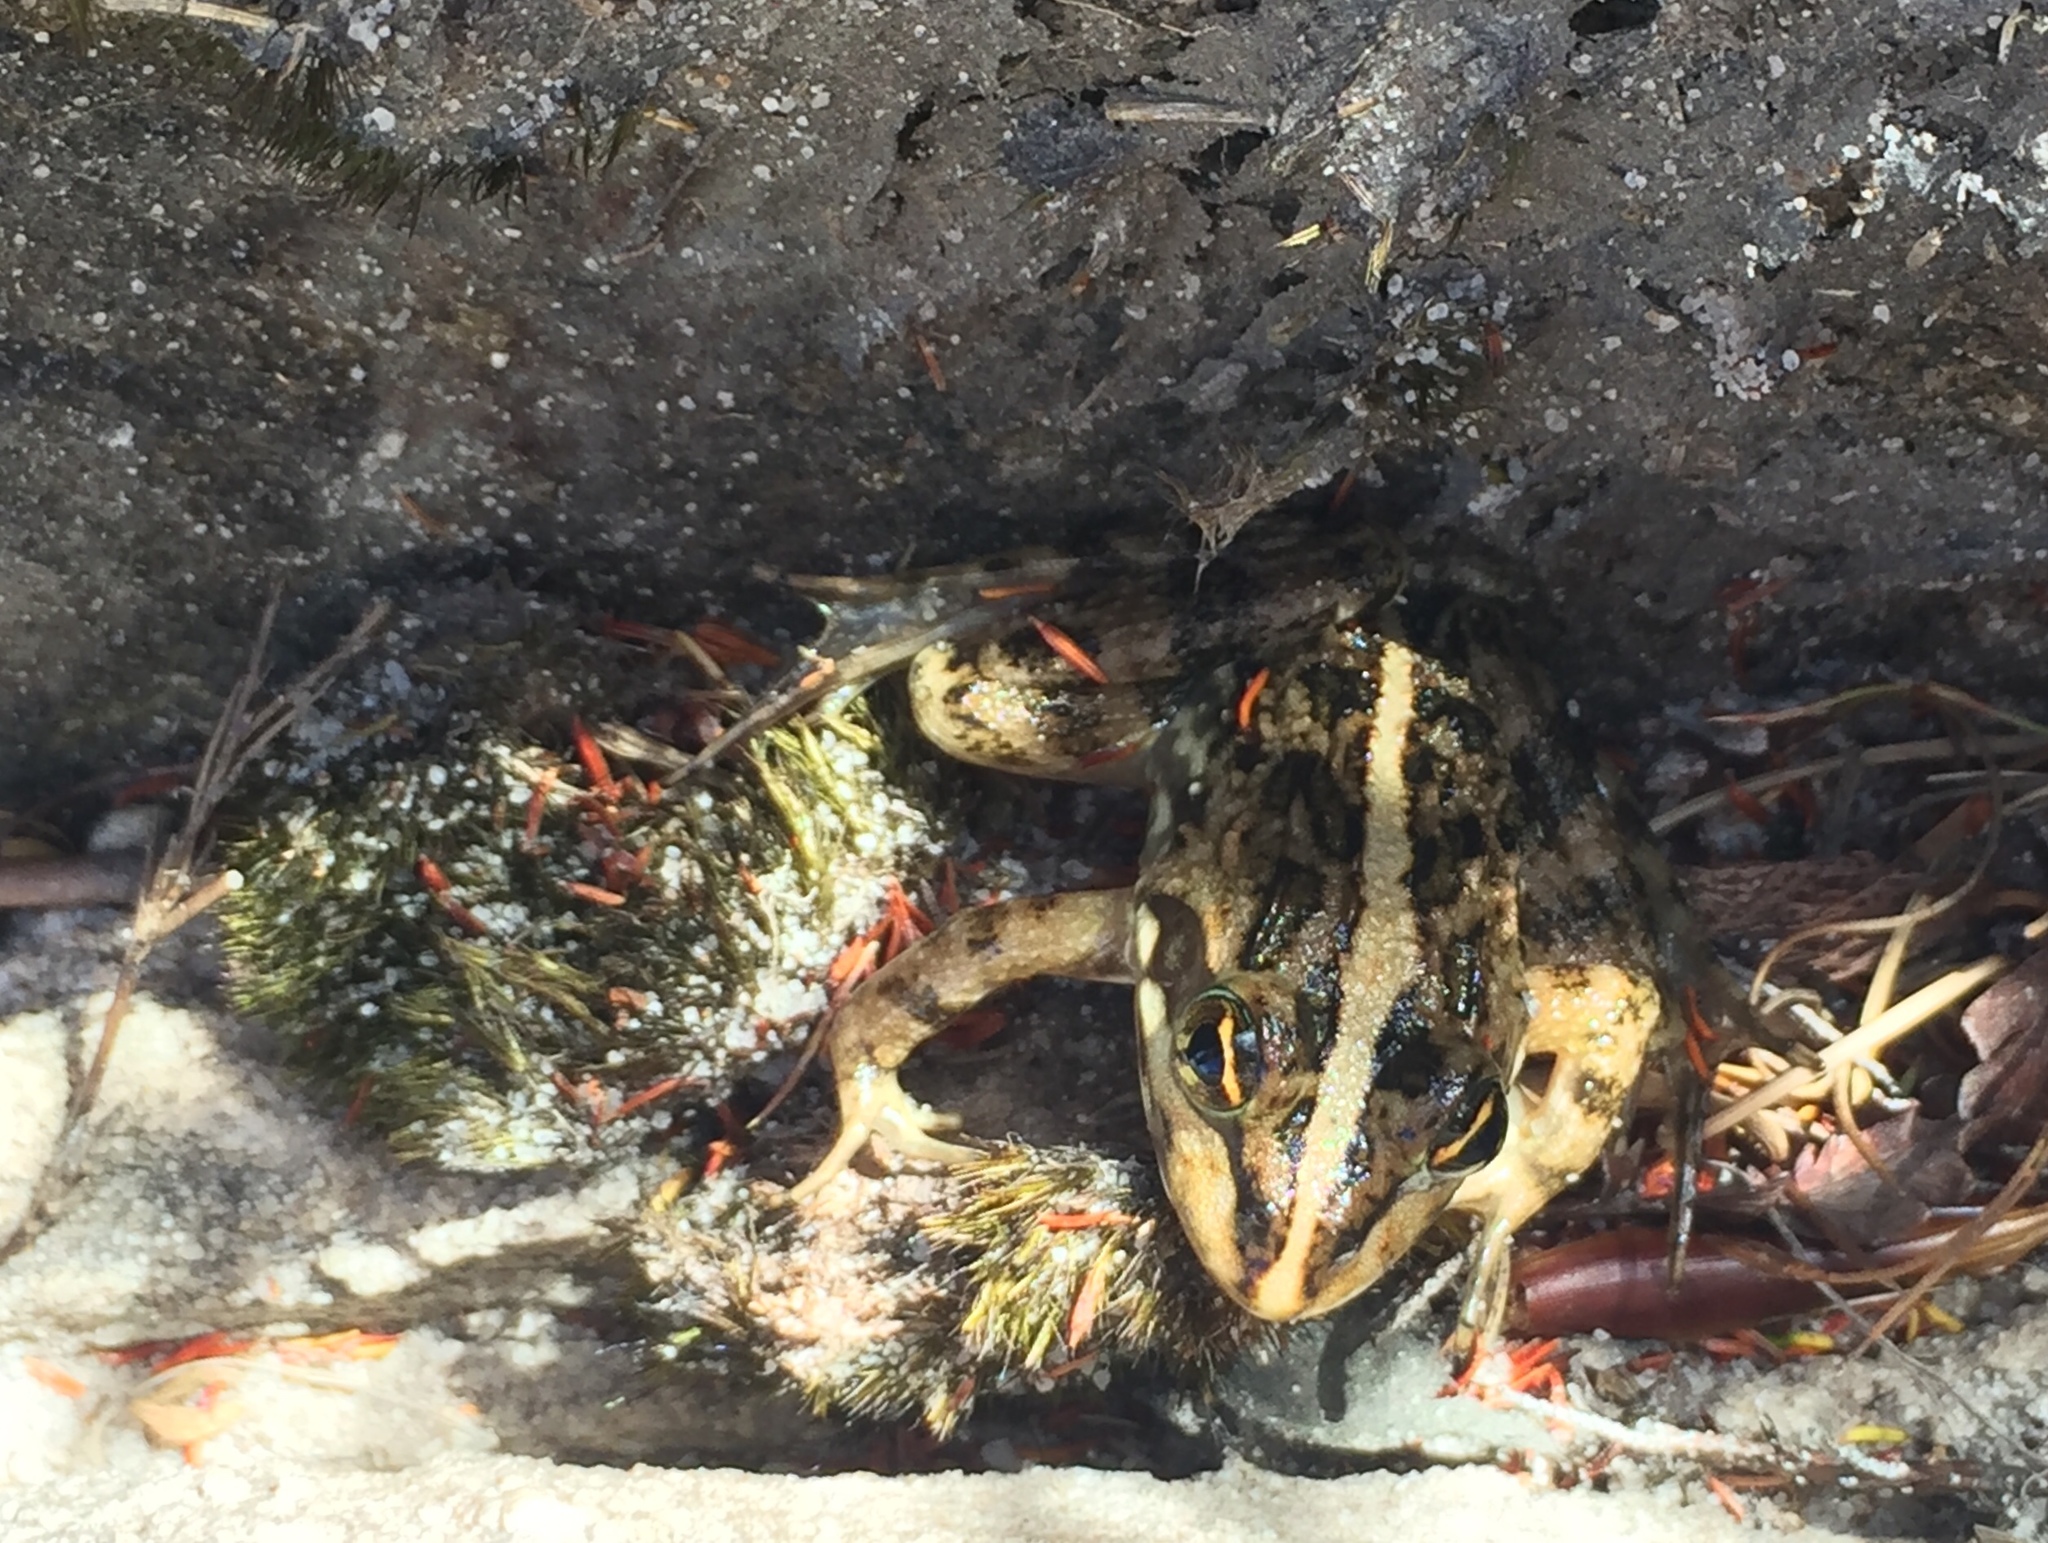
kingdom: Animalia
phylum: Chordata
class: Amphibia
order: Anura
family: Pyxicephalidae
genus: Amietia
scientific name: Amietia fuscigula
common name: Cape rana
